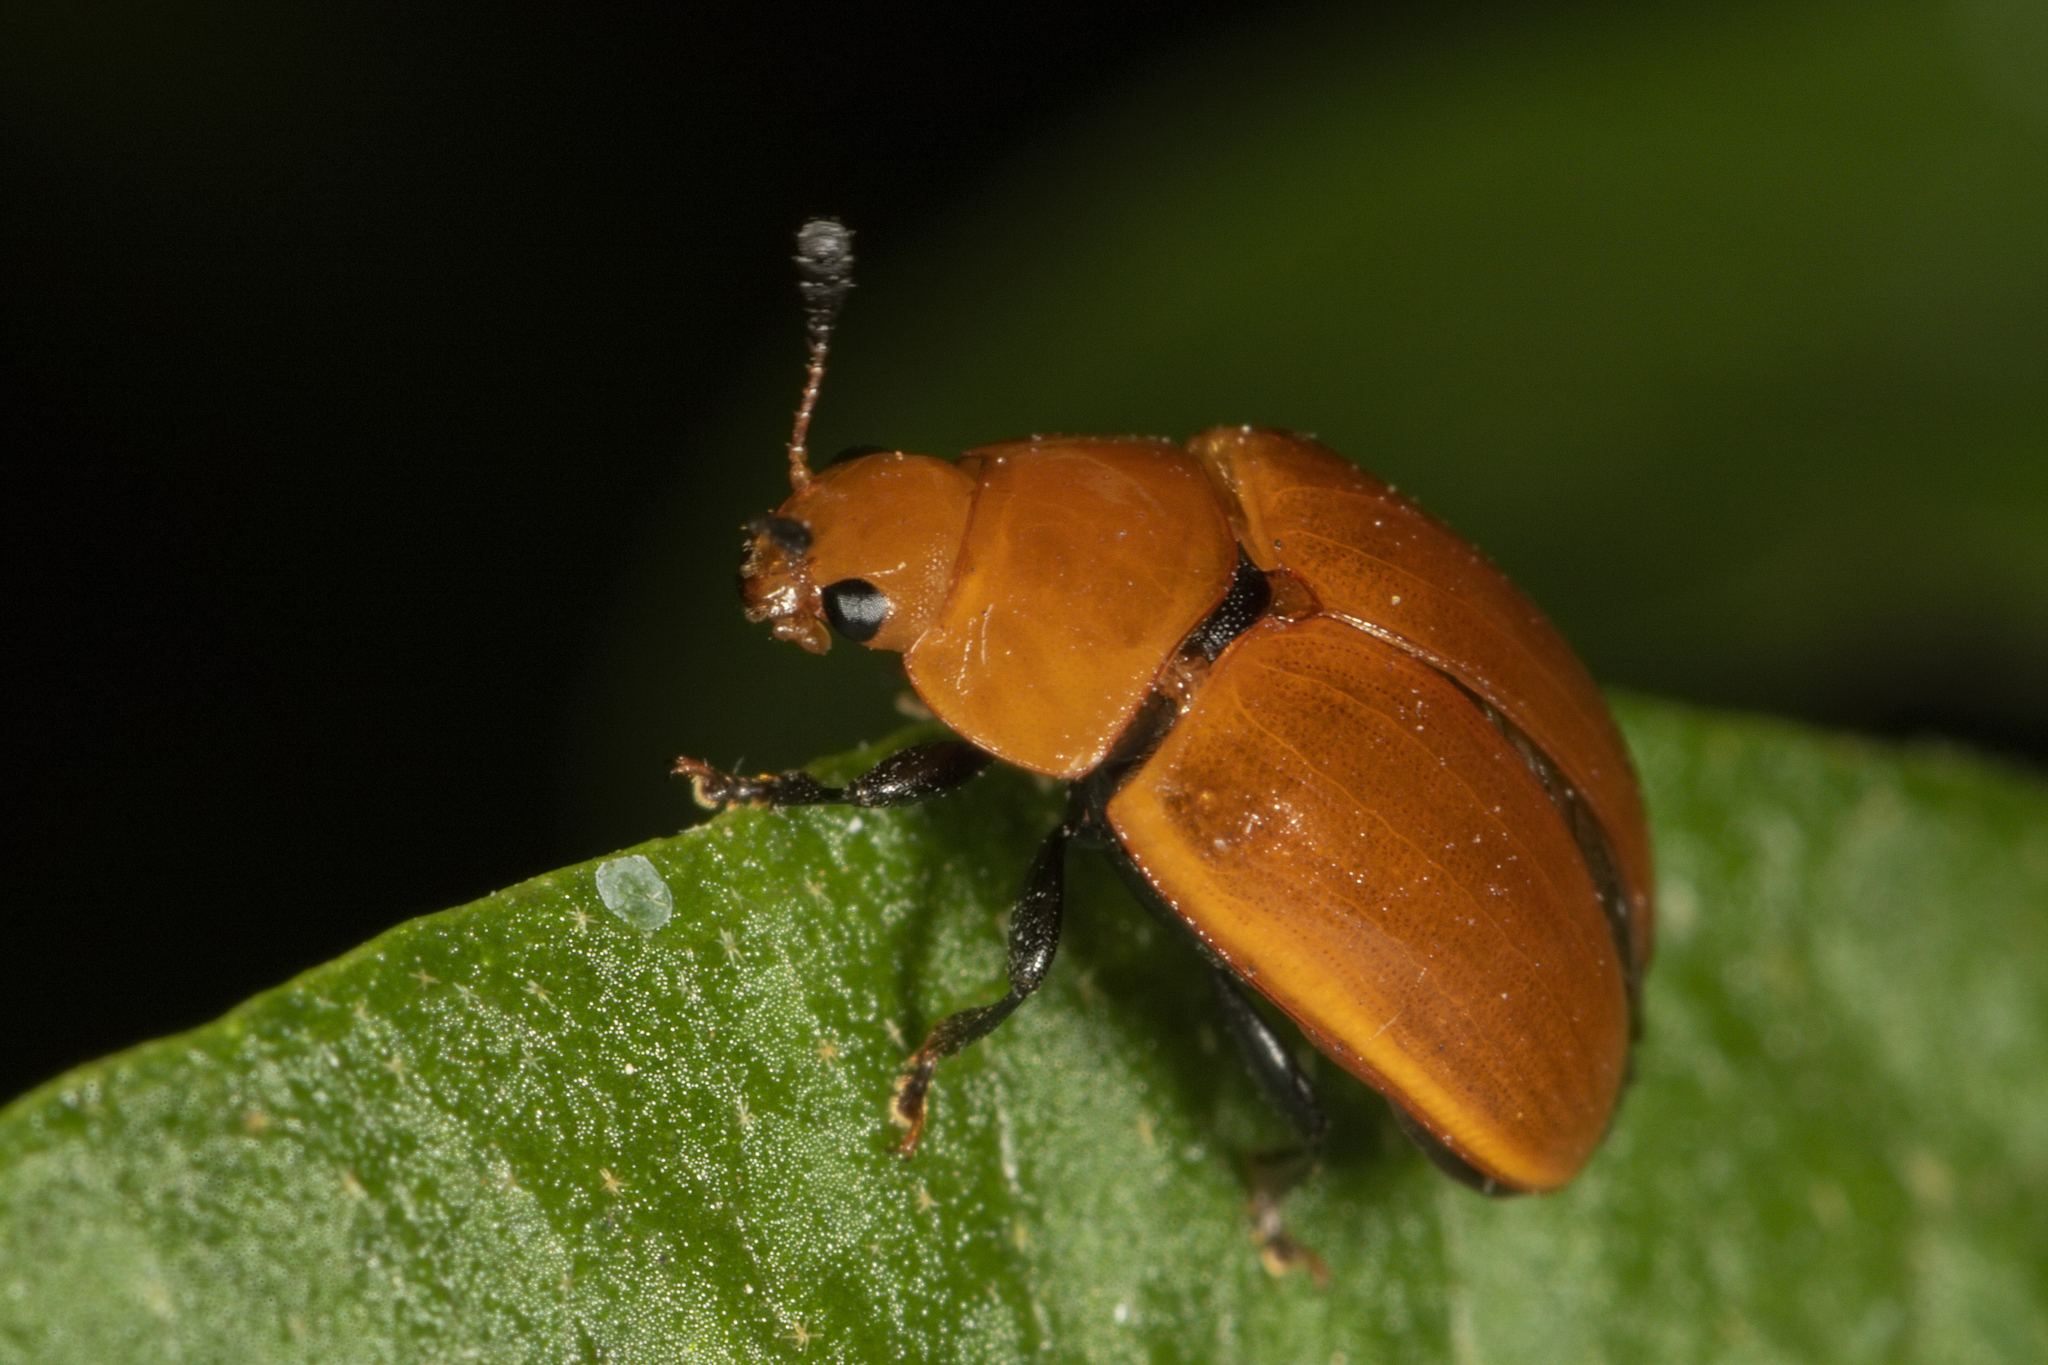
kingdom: Animalia
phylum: Arthropoda
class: Insecta
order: Coleoptera
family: Erotylidae
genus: Mycomystes
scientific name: Mycomystes nigriventris
